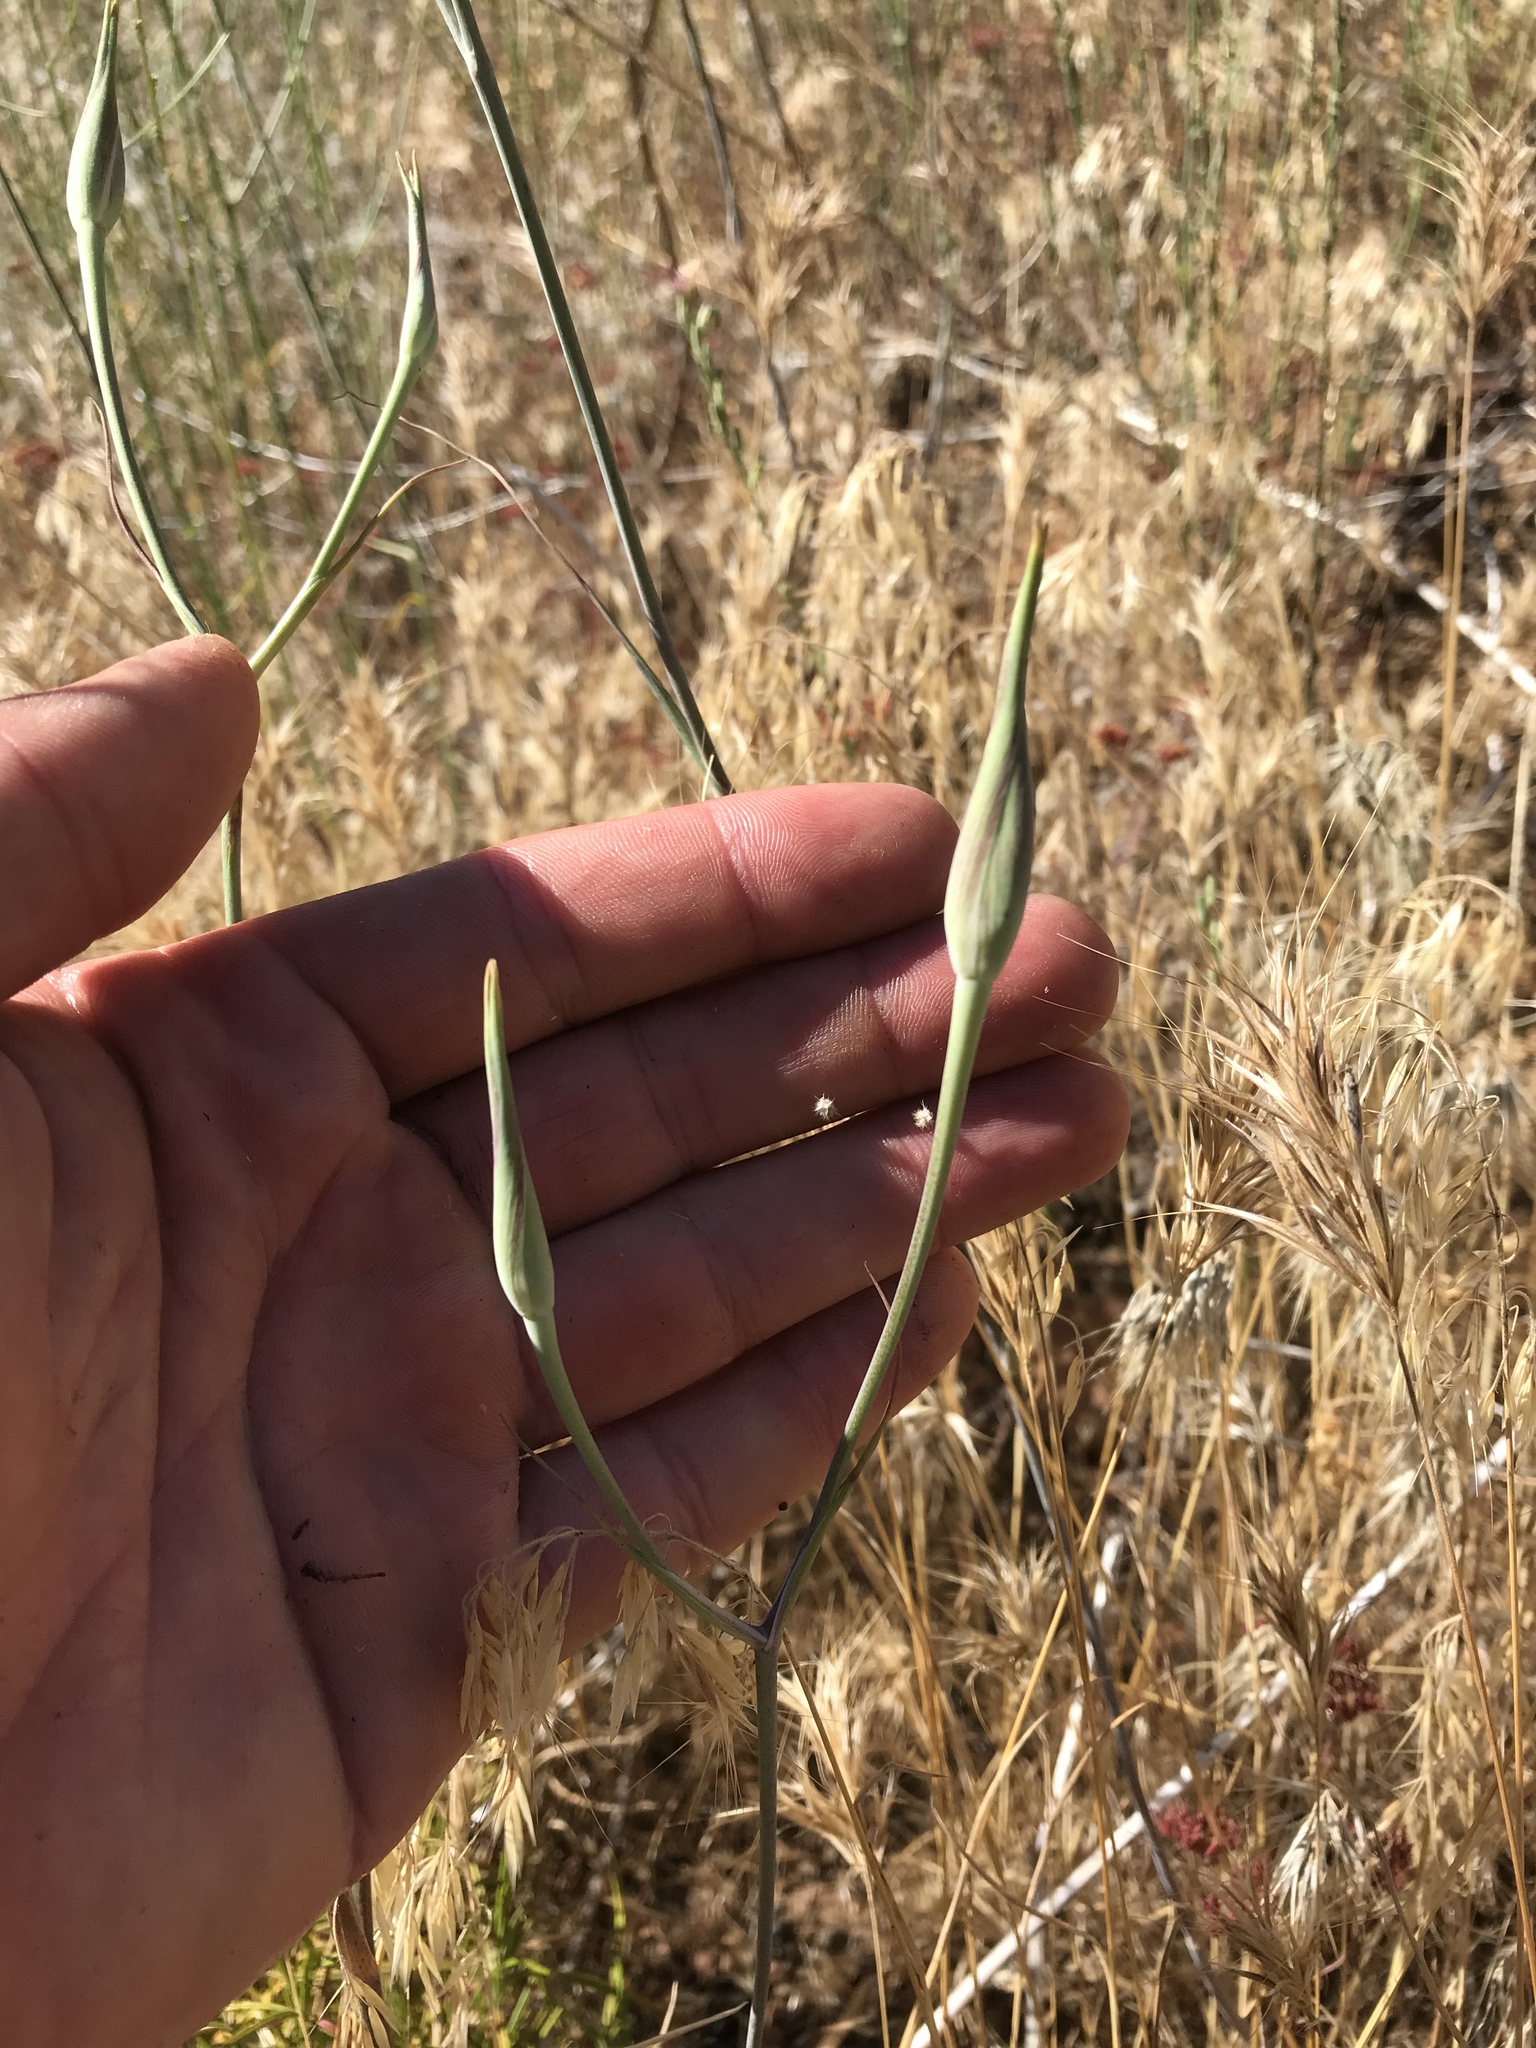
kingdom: Plantae
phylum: Tracheophyta
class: Liliopsida
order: Liliales
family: Liliaceae
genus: Calochortus
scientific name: Calochortus fimbriatus
